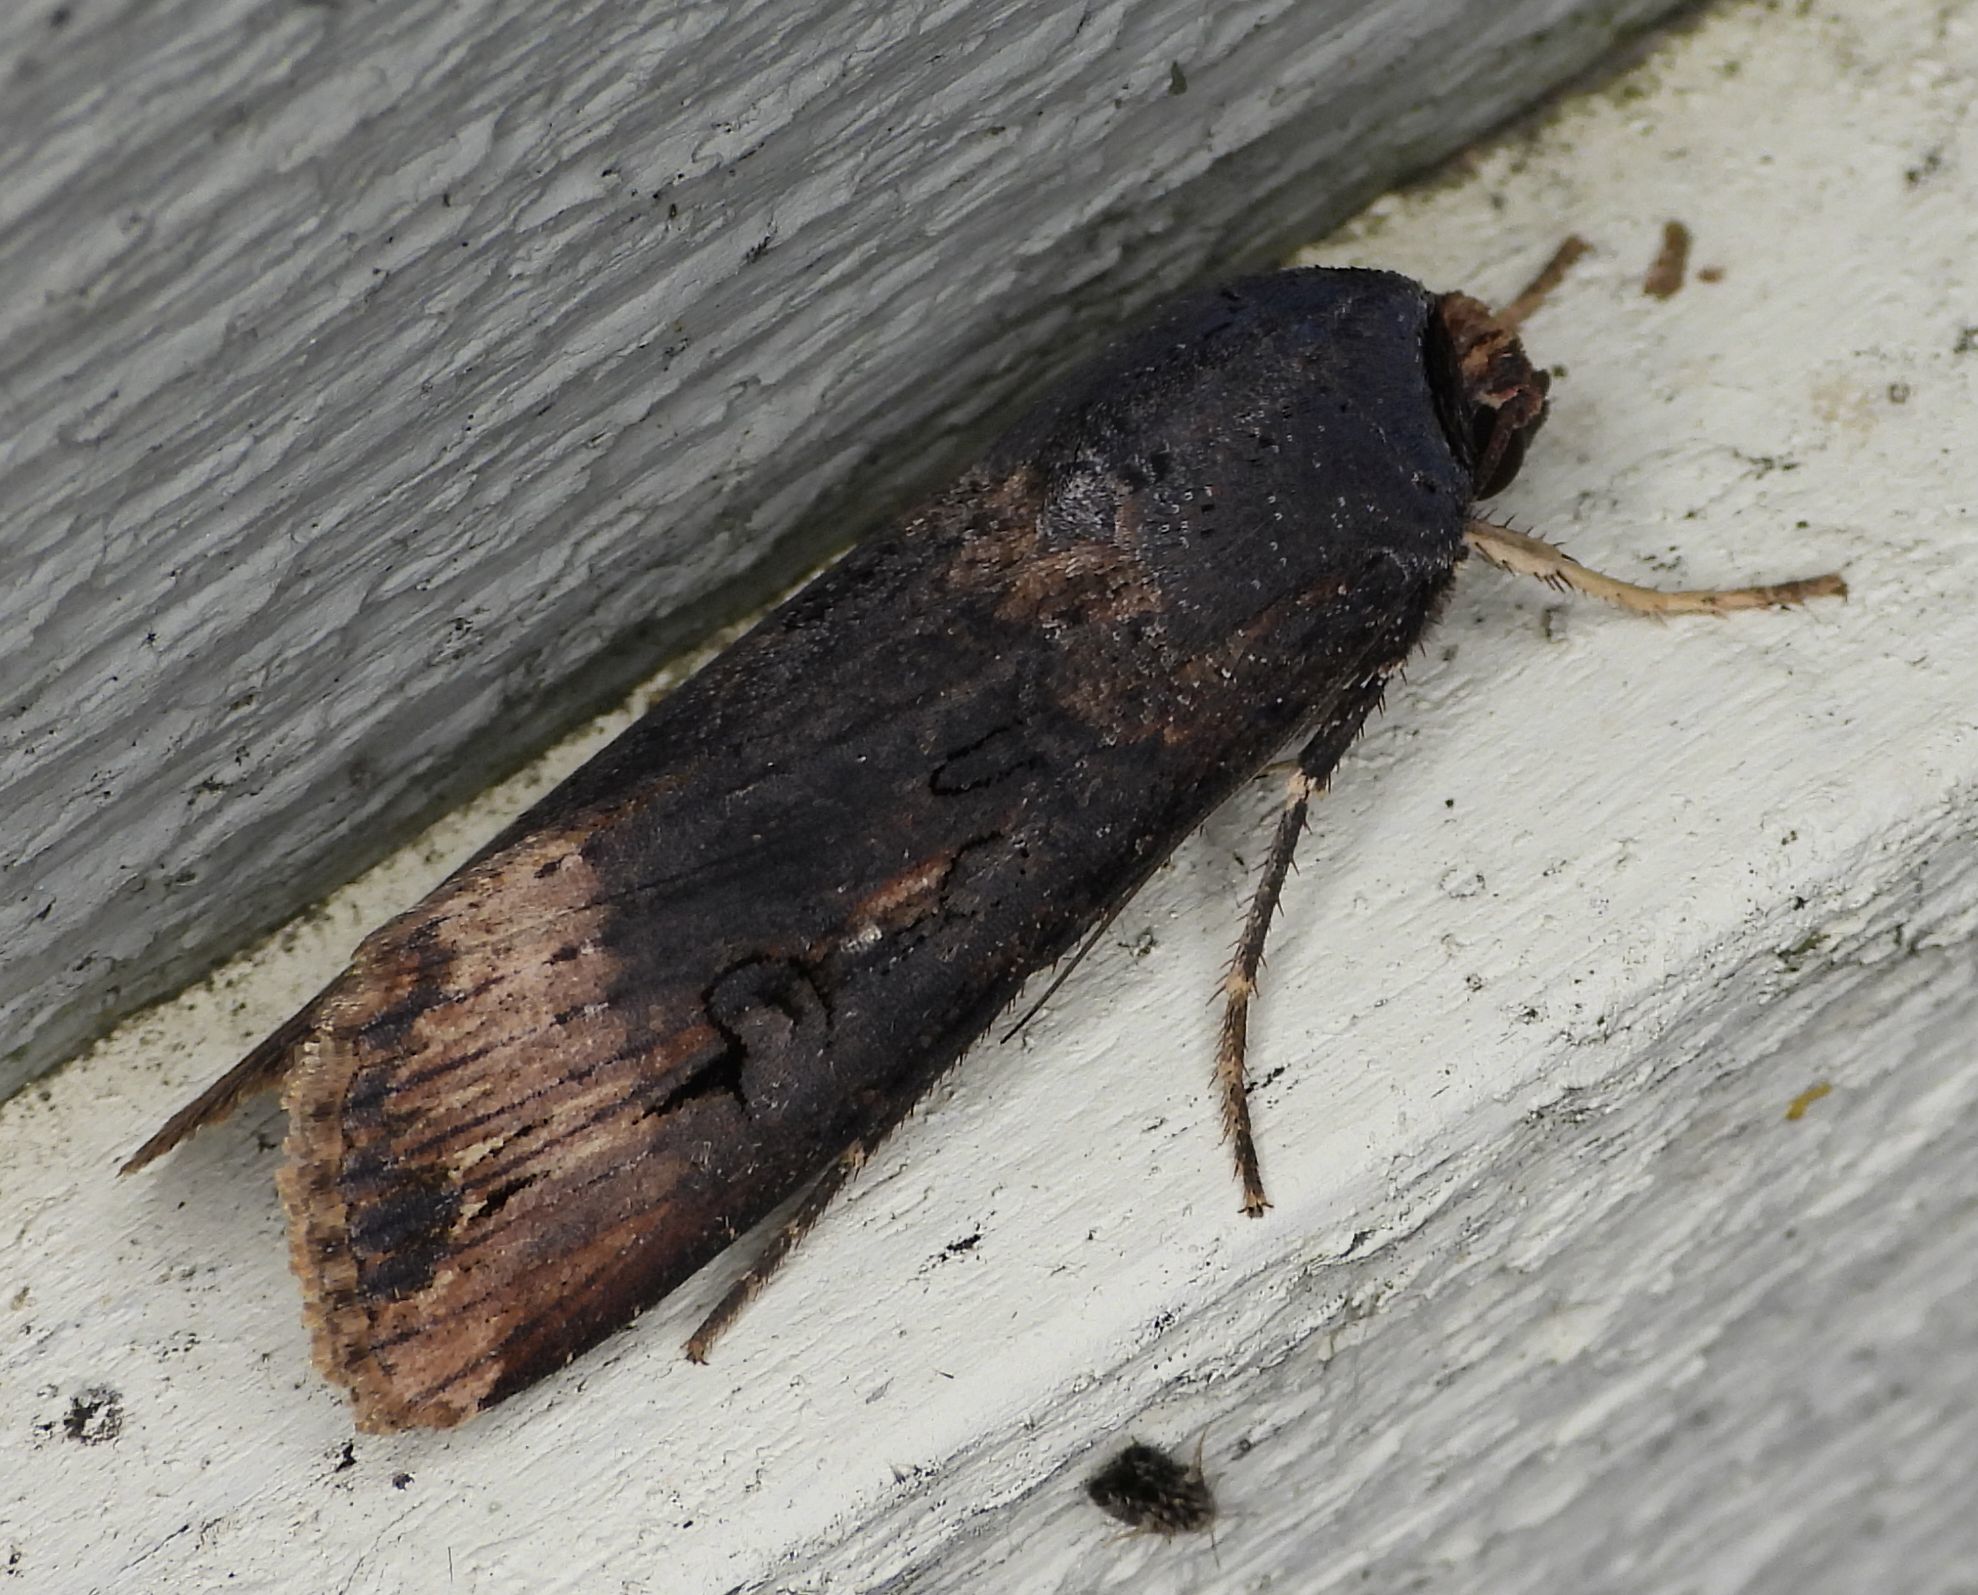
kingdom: Animalia
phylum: Arthropoda
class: Insecta
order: Lepidoptera
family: Noctuidae
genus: Agrotis
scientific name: Agrotis ipsilon
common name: Dark sword-grass
